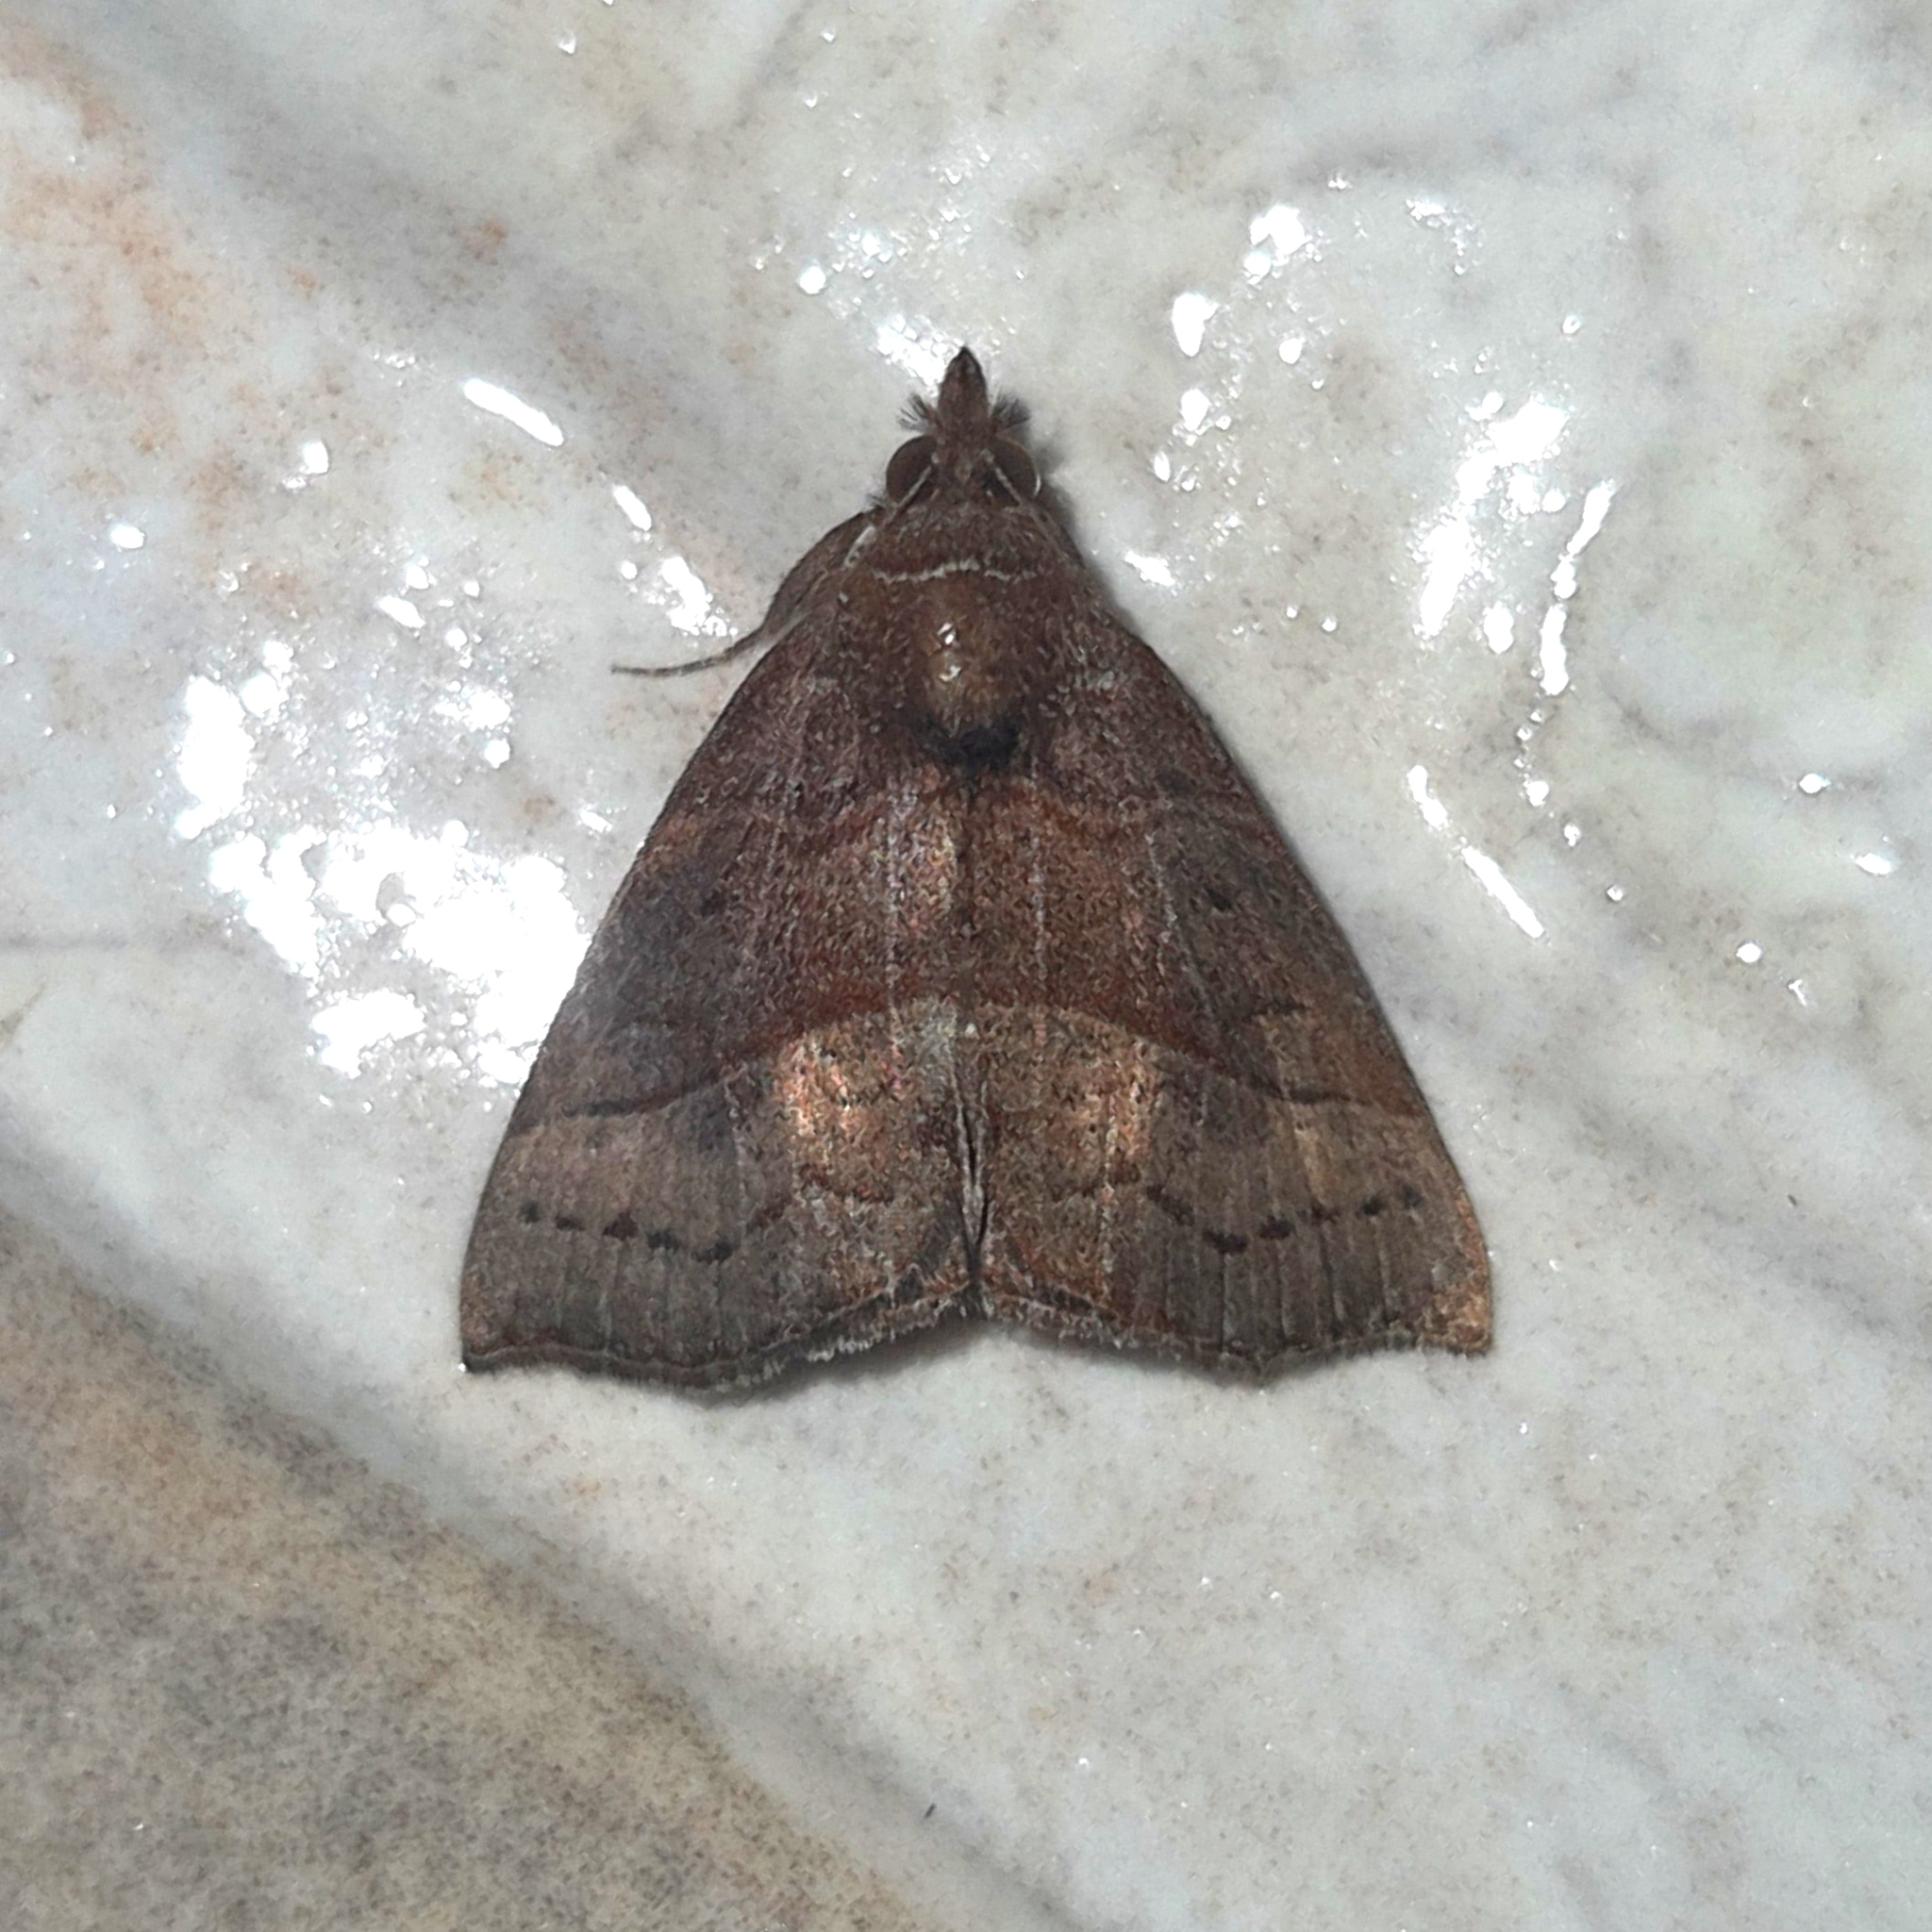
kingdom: Animalia
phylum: Arthropoda
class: Insecta
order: Lepidoptera
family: Erebidae
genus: Hypena
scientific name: Hypena lollia
